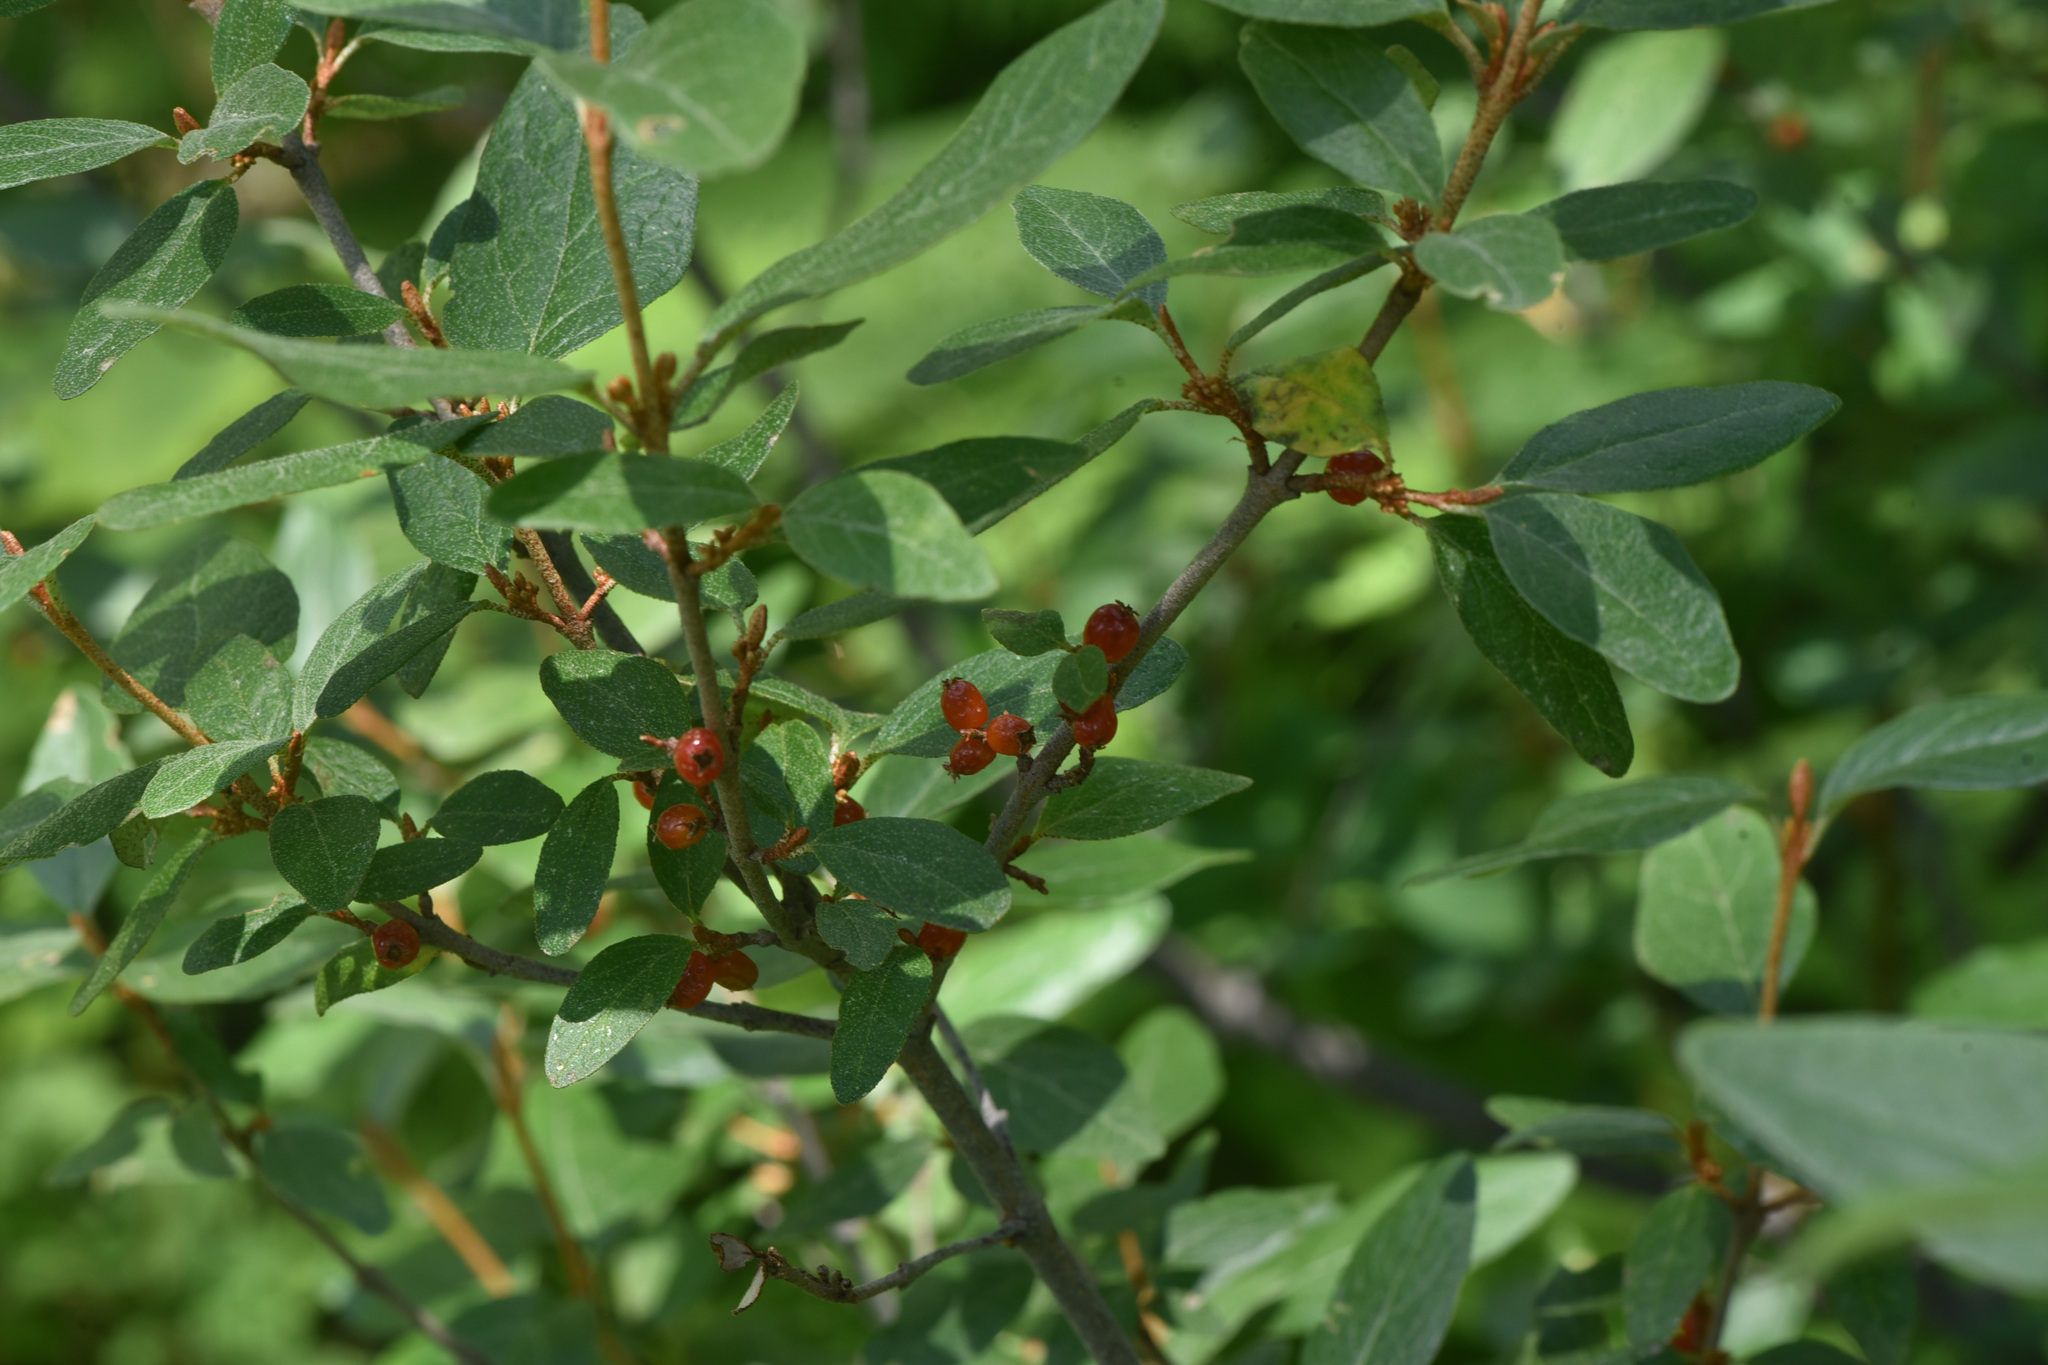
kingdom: Plantae
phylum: Tracheophyta
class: Magnoliopsida
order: Rosales
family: Elaeagnaceae
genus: Shepherdia
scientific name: Shepherdia canadensis
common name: Soapberry
